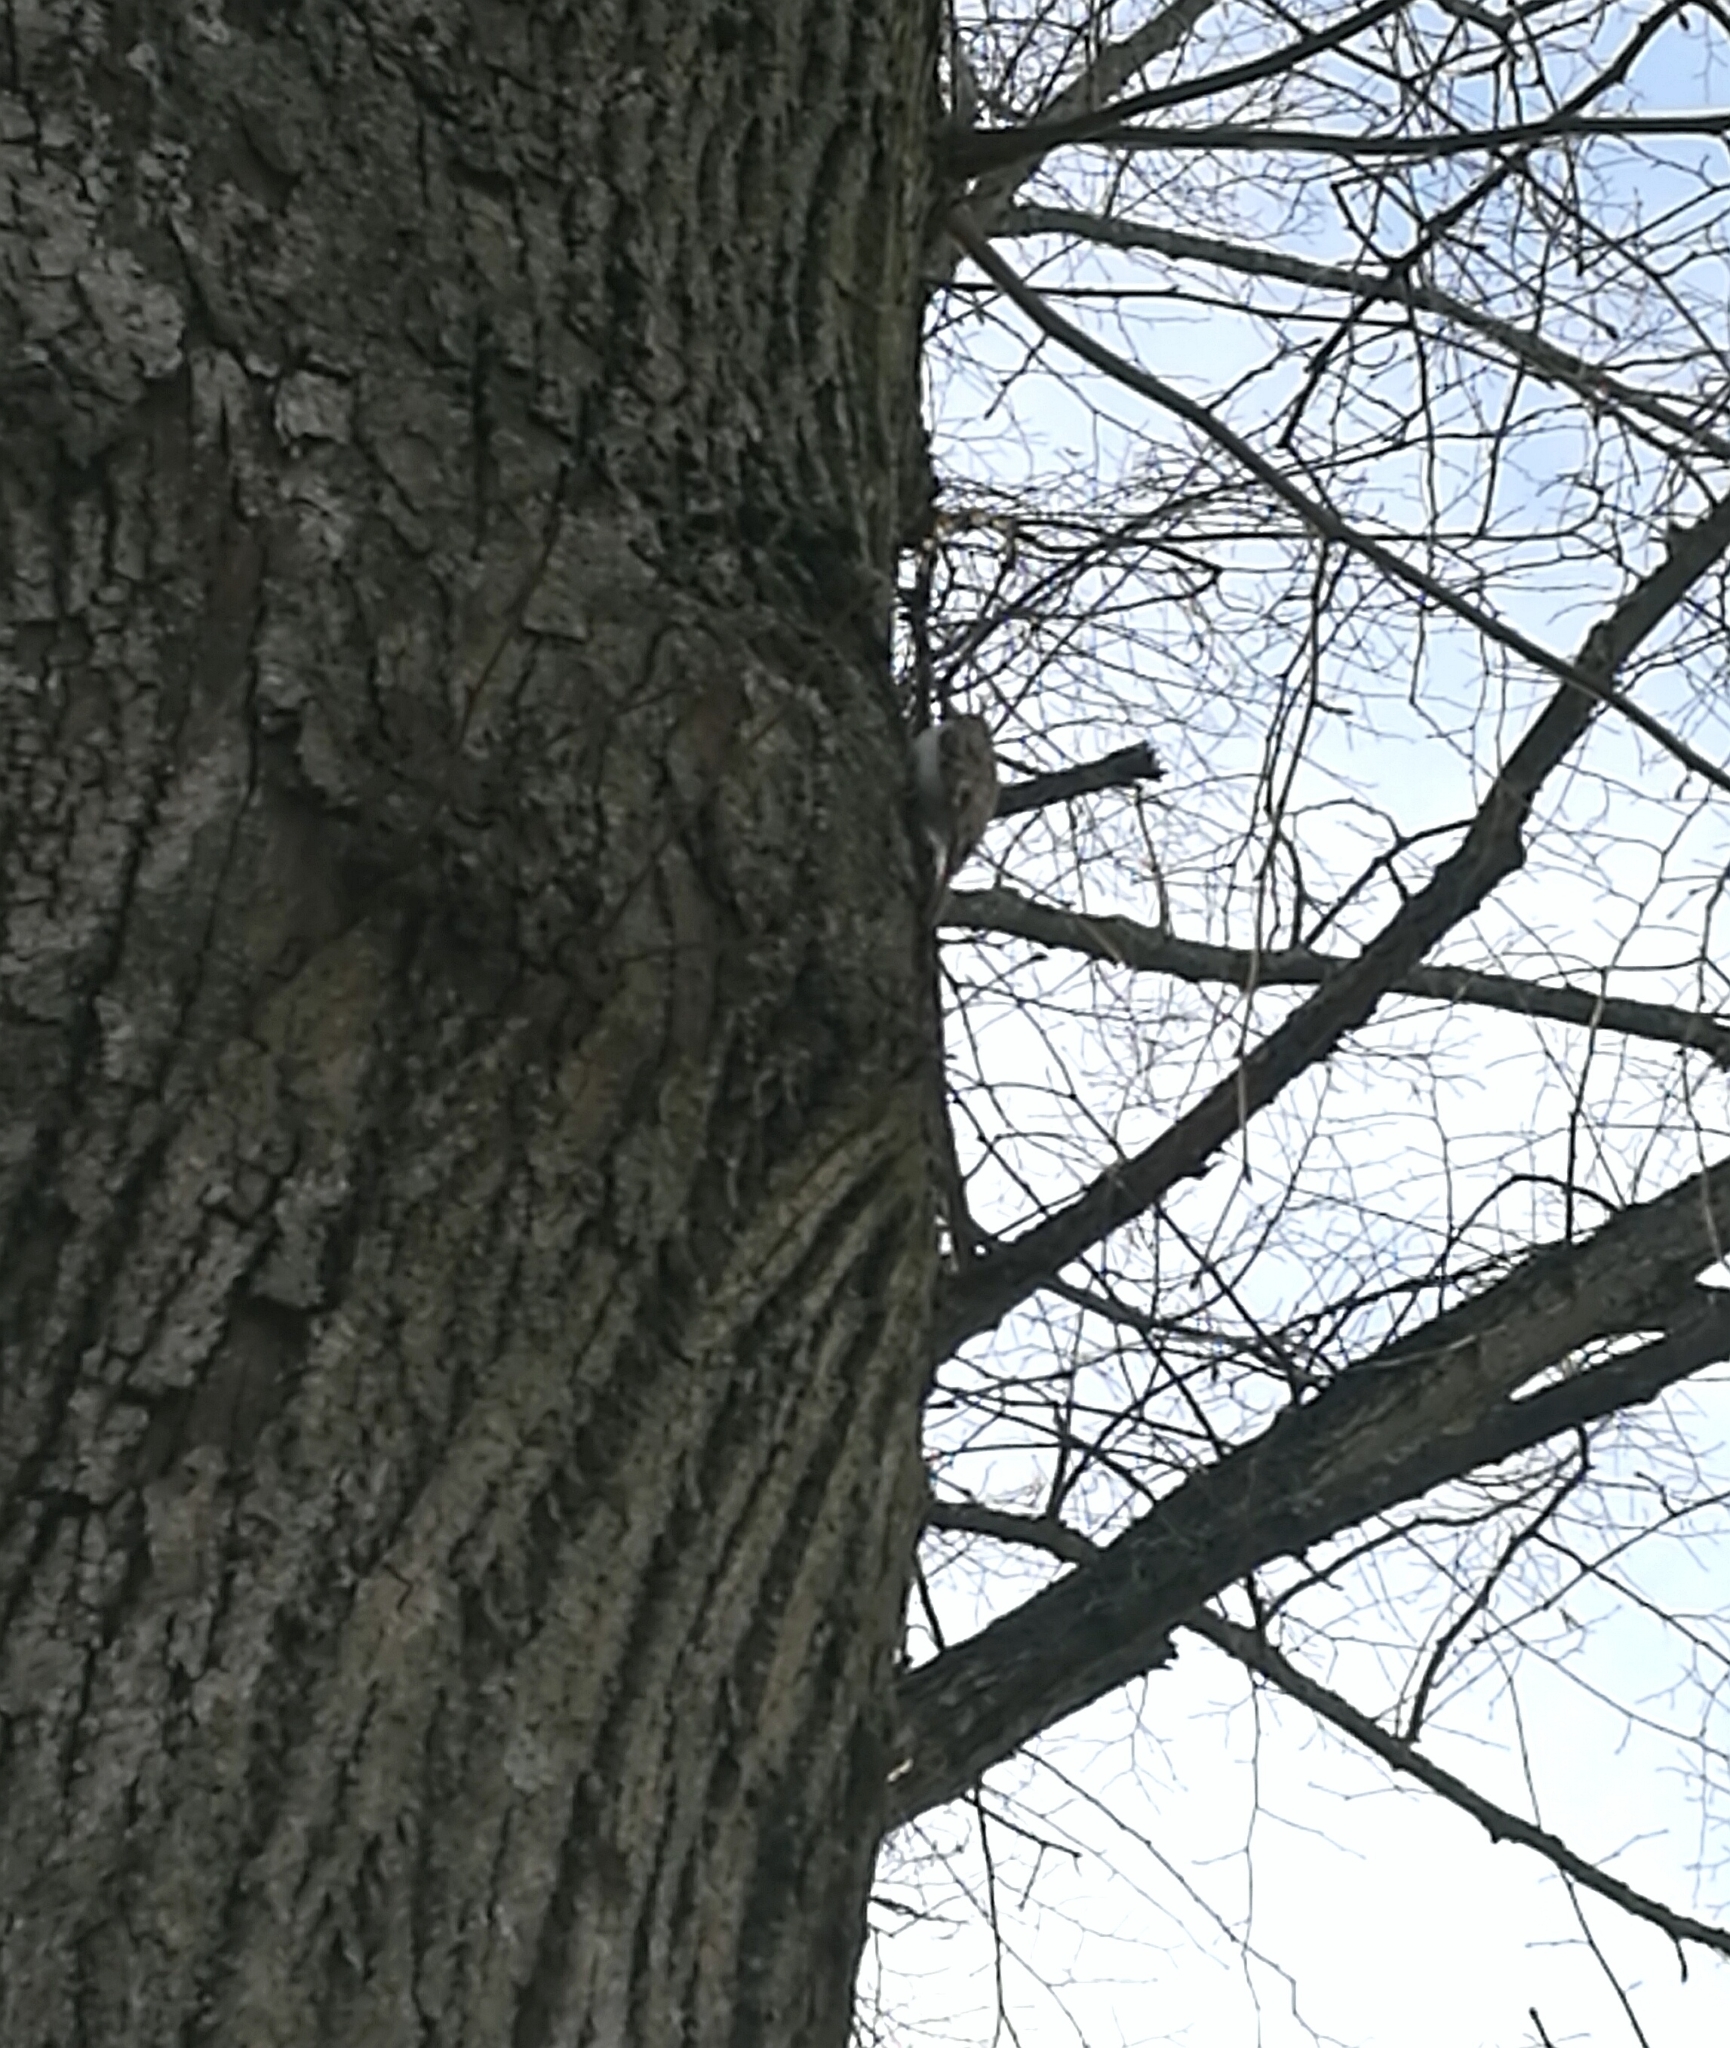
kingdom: Animalia
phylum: Chordata
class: Aves
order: Passeriformes
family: Certhiidae
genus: Certhia
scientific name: Certhia familiaris
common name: Eurasian treecreeper
